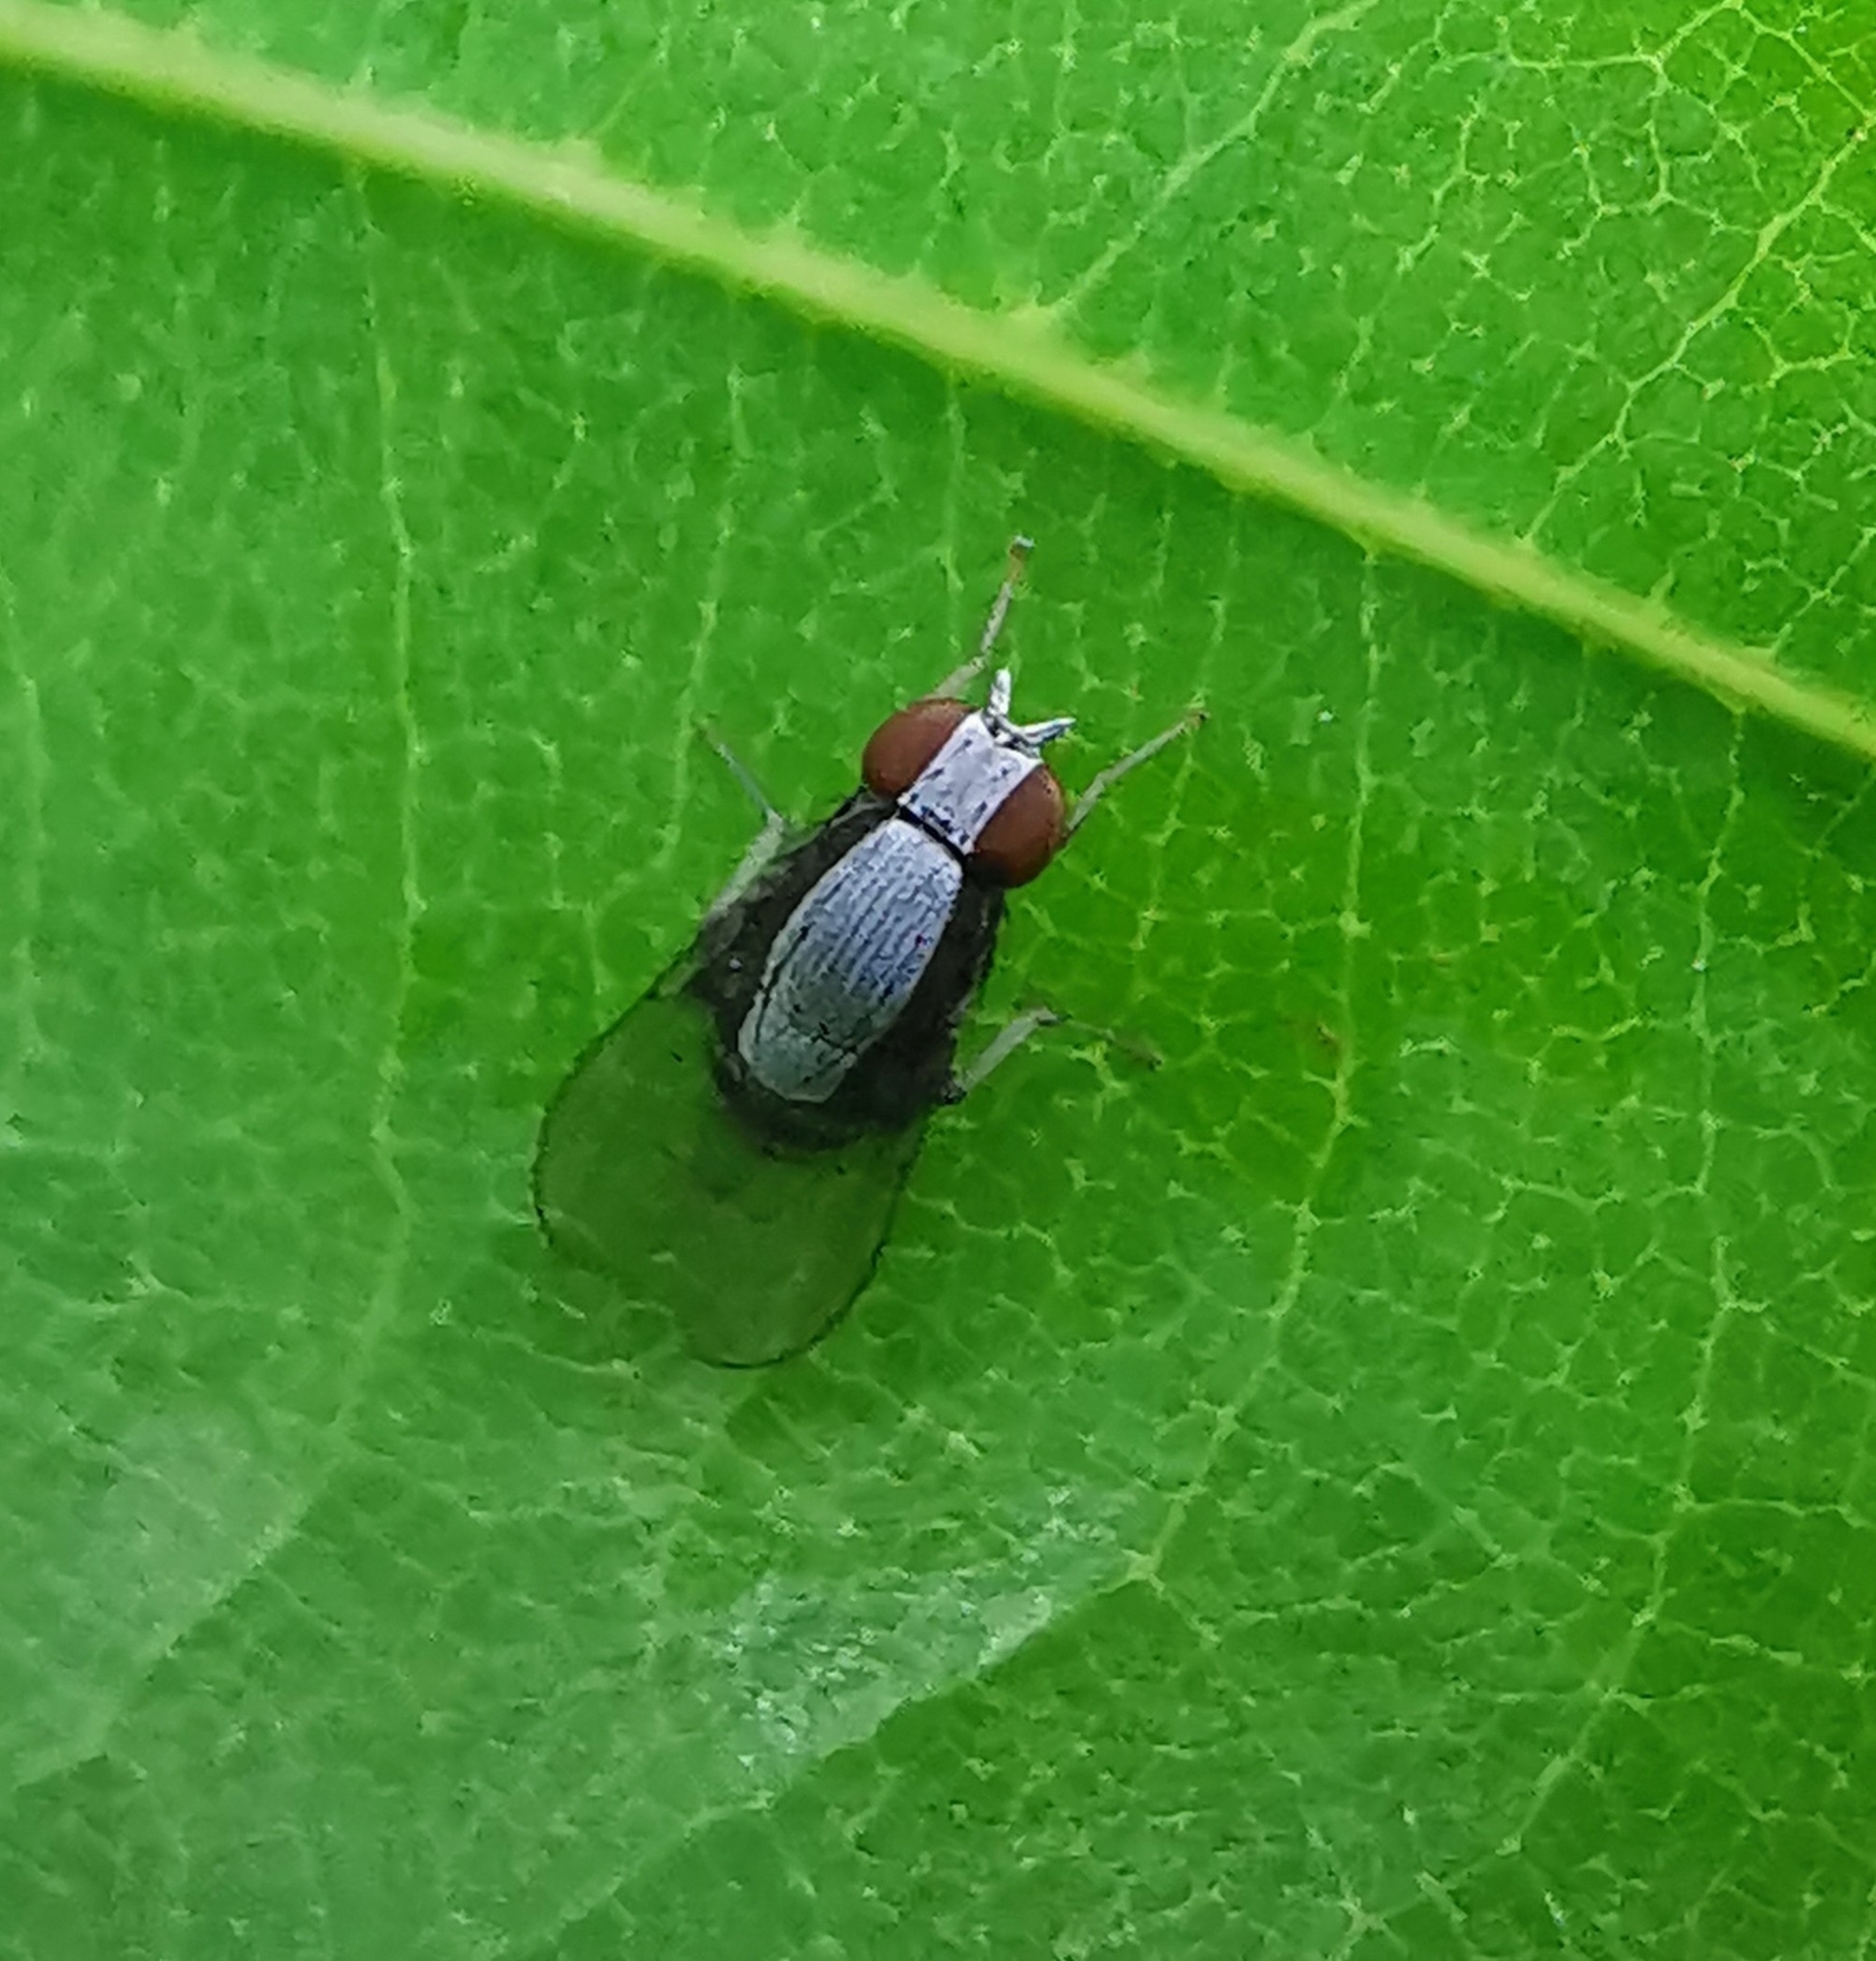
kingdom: Animalia
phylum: Arthropoda
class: Insecta
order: Diptera
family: Lauxaniidae
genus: Homoneura
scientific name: Homoneura discoglauca
